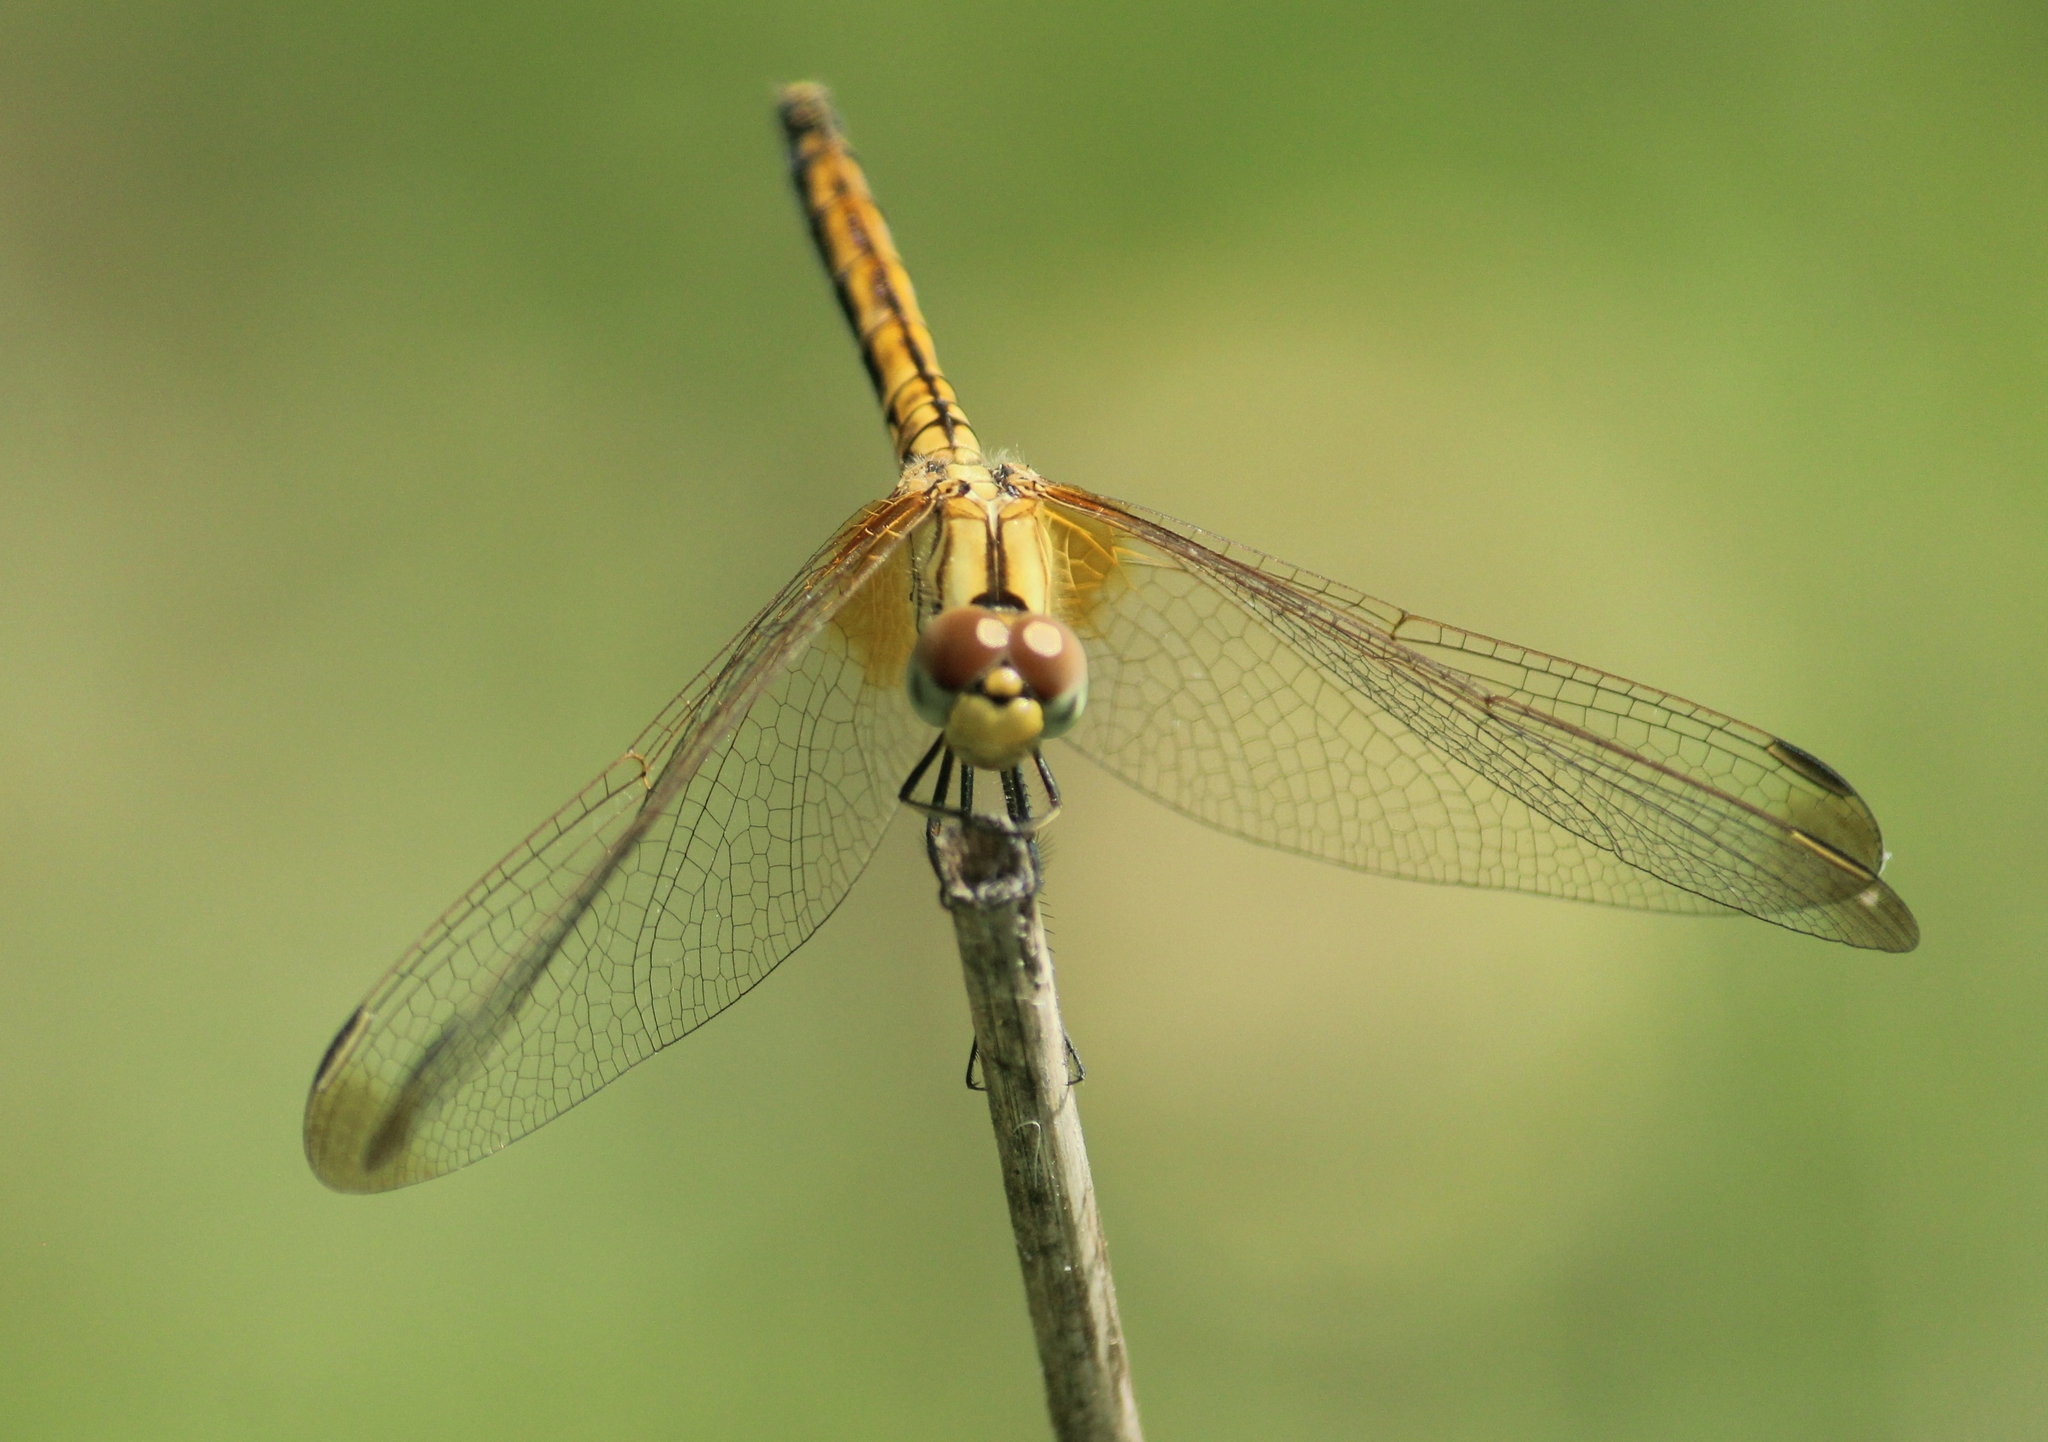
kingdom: Animalia
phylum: Arthropoda
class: Insecta
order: Odonata
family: Libellulidae
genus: Trithemis
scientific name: Trithemis aurora
